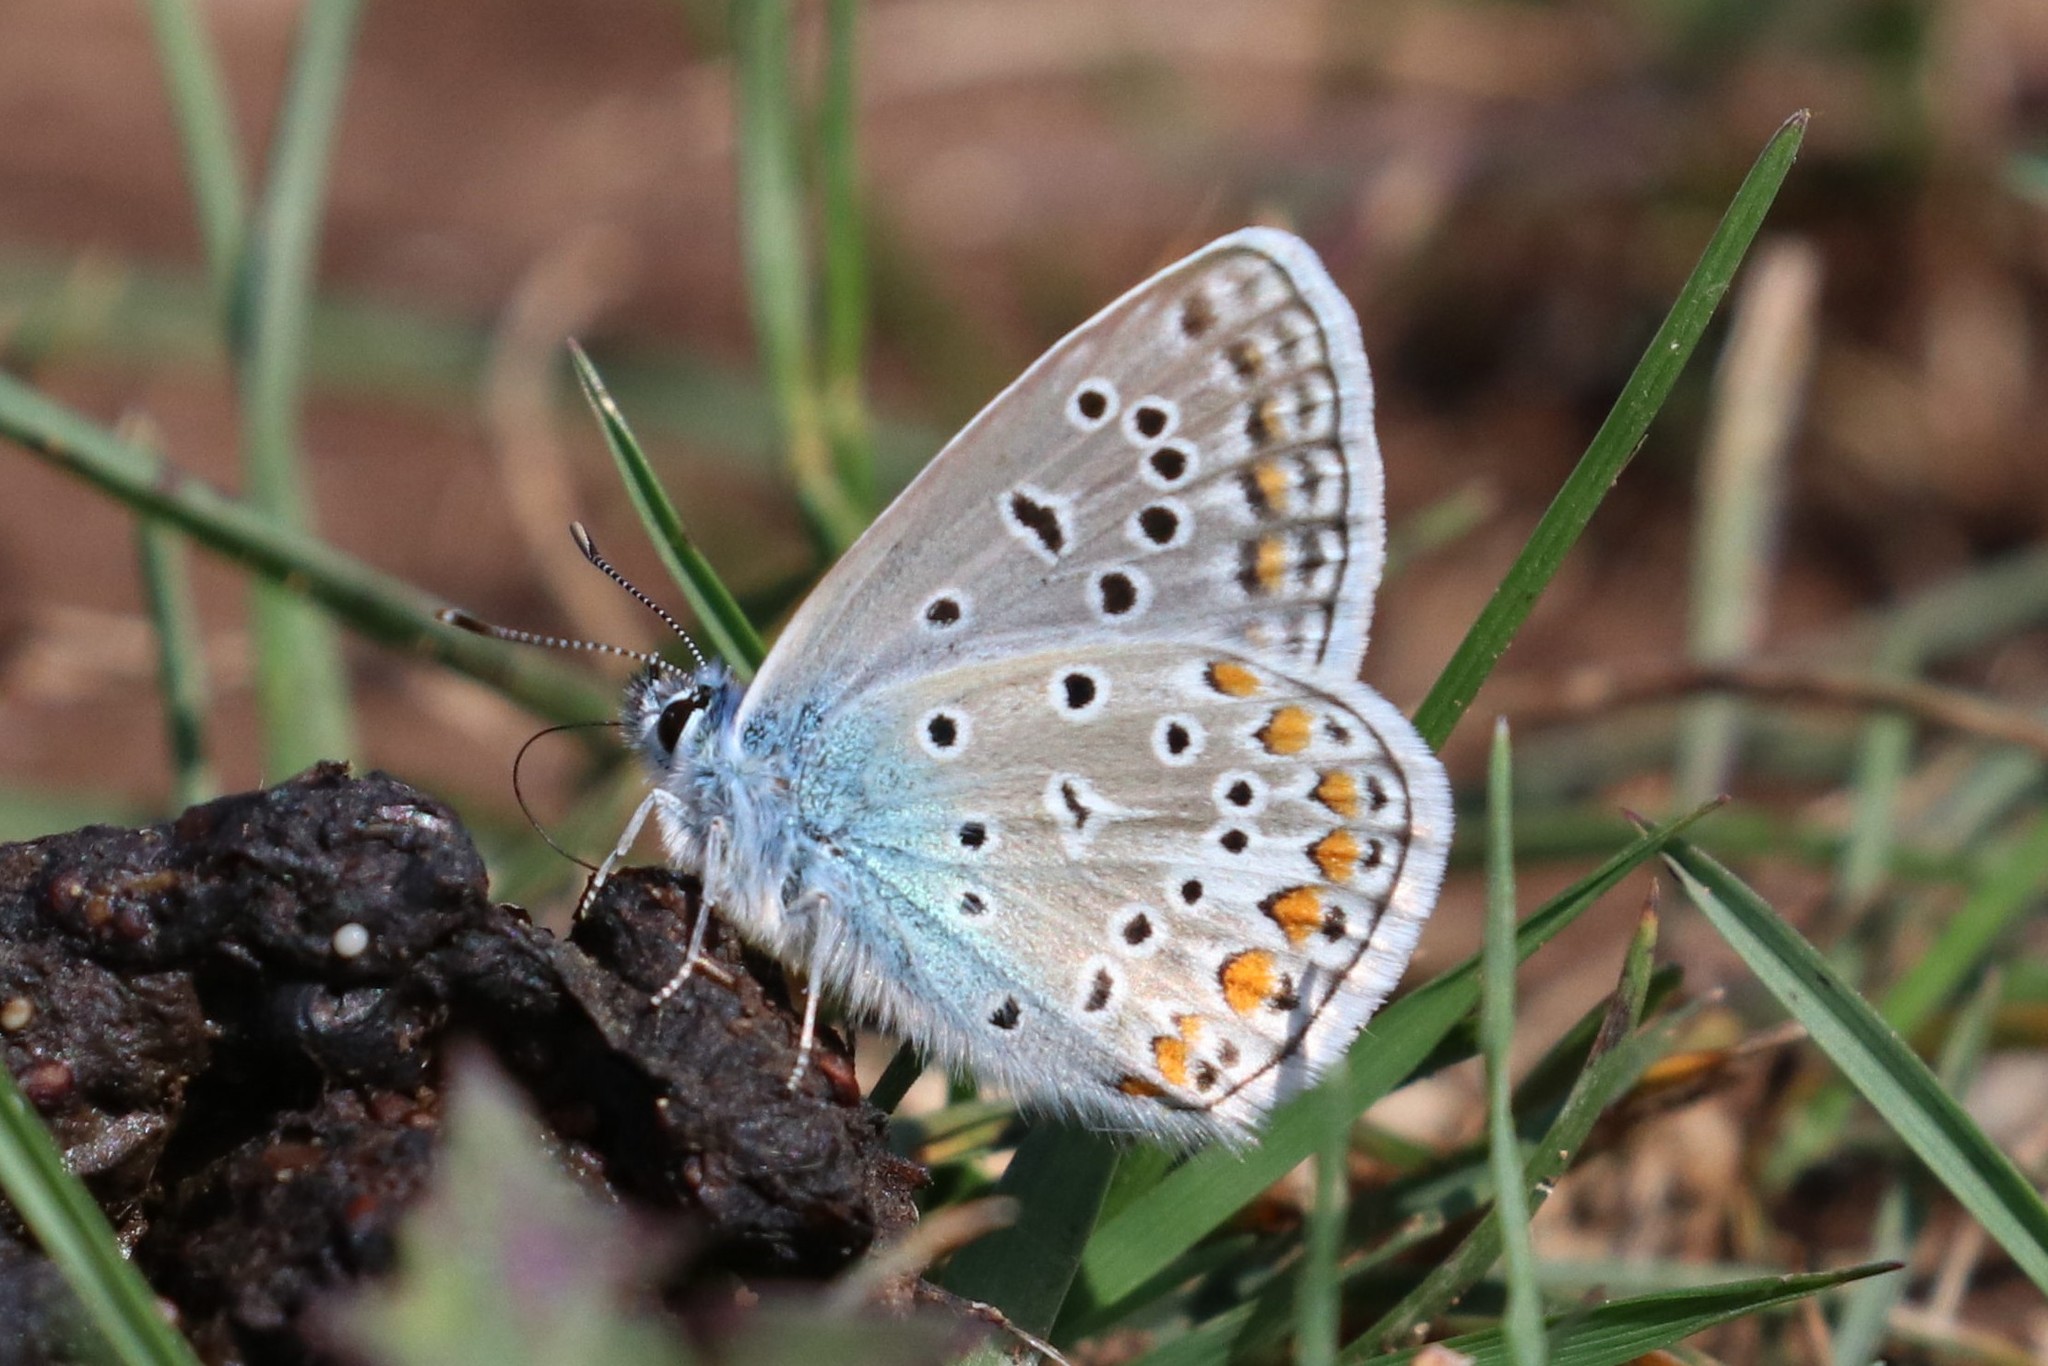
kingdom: Animalia
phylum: Arthropoda
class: Insecta
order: Lepidoptera
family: Lycaenidae
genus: Polyommatus
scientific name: Polyommatus icarus
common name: Common blue
